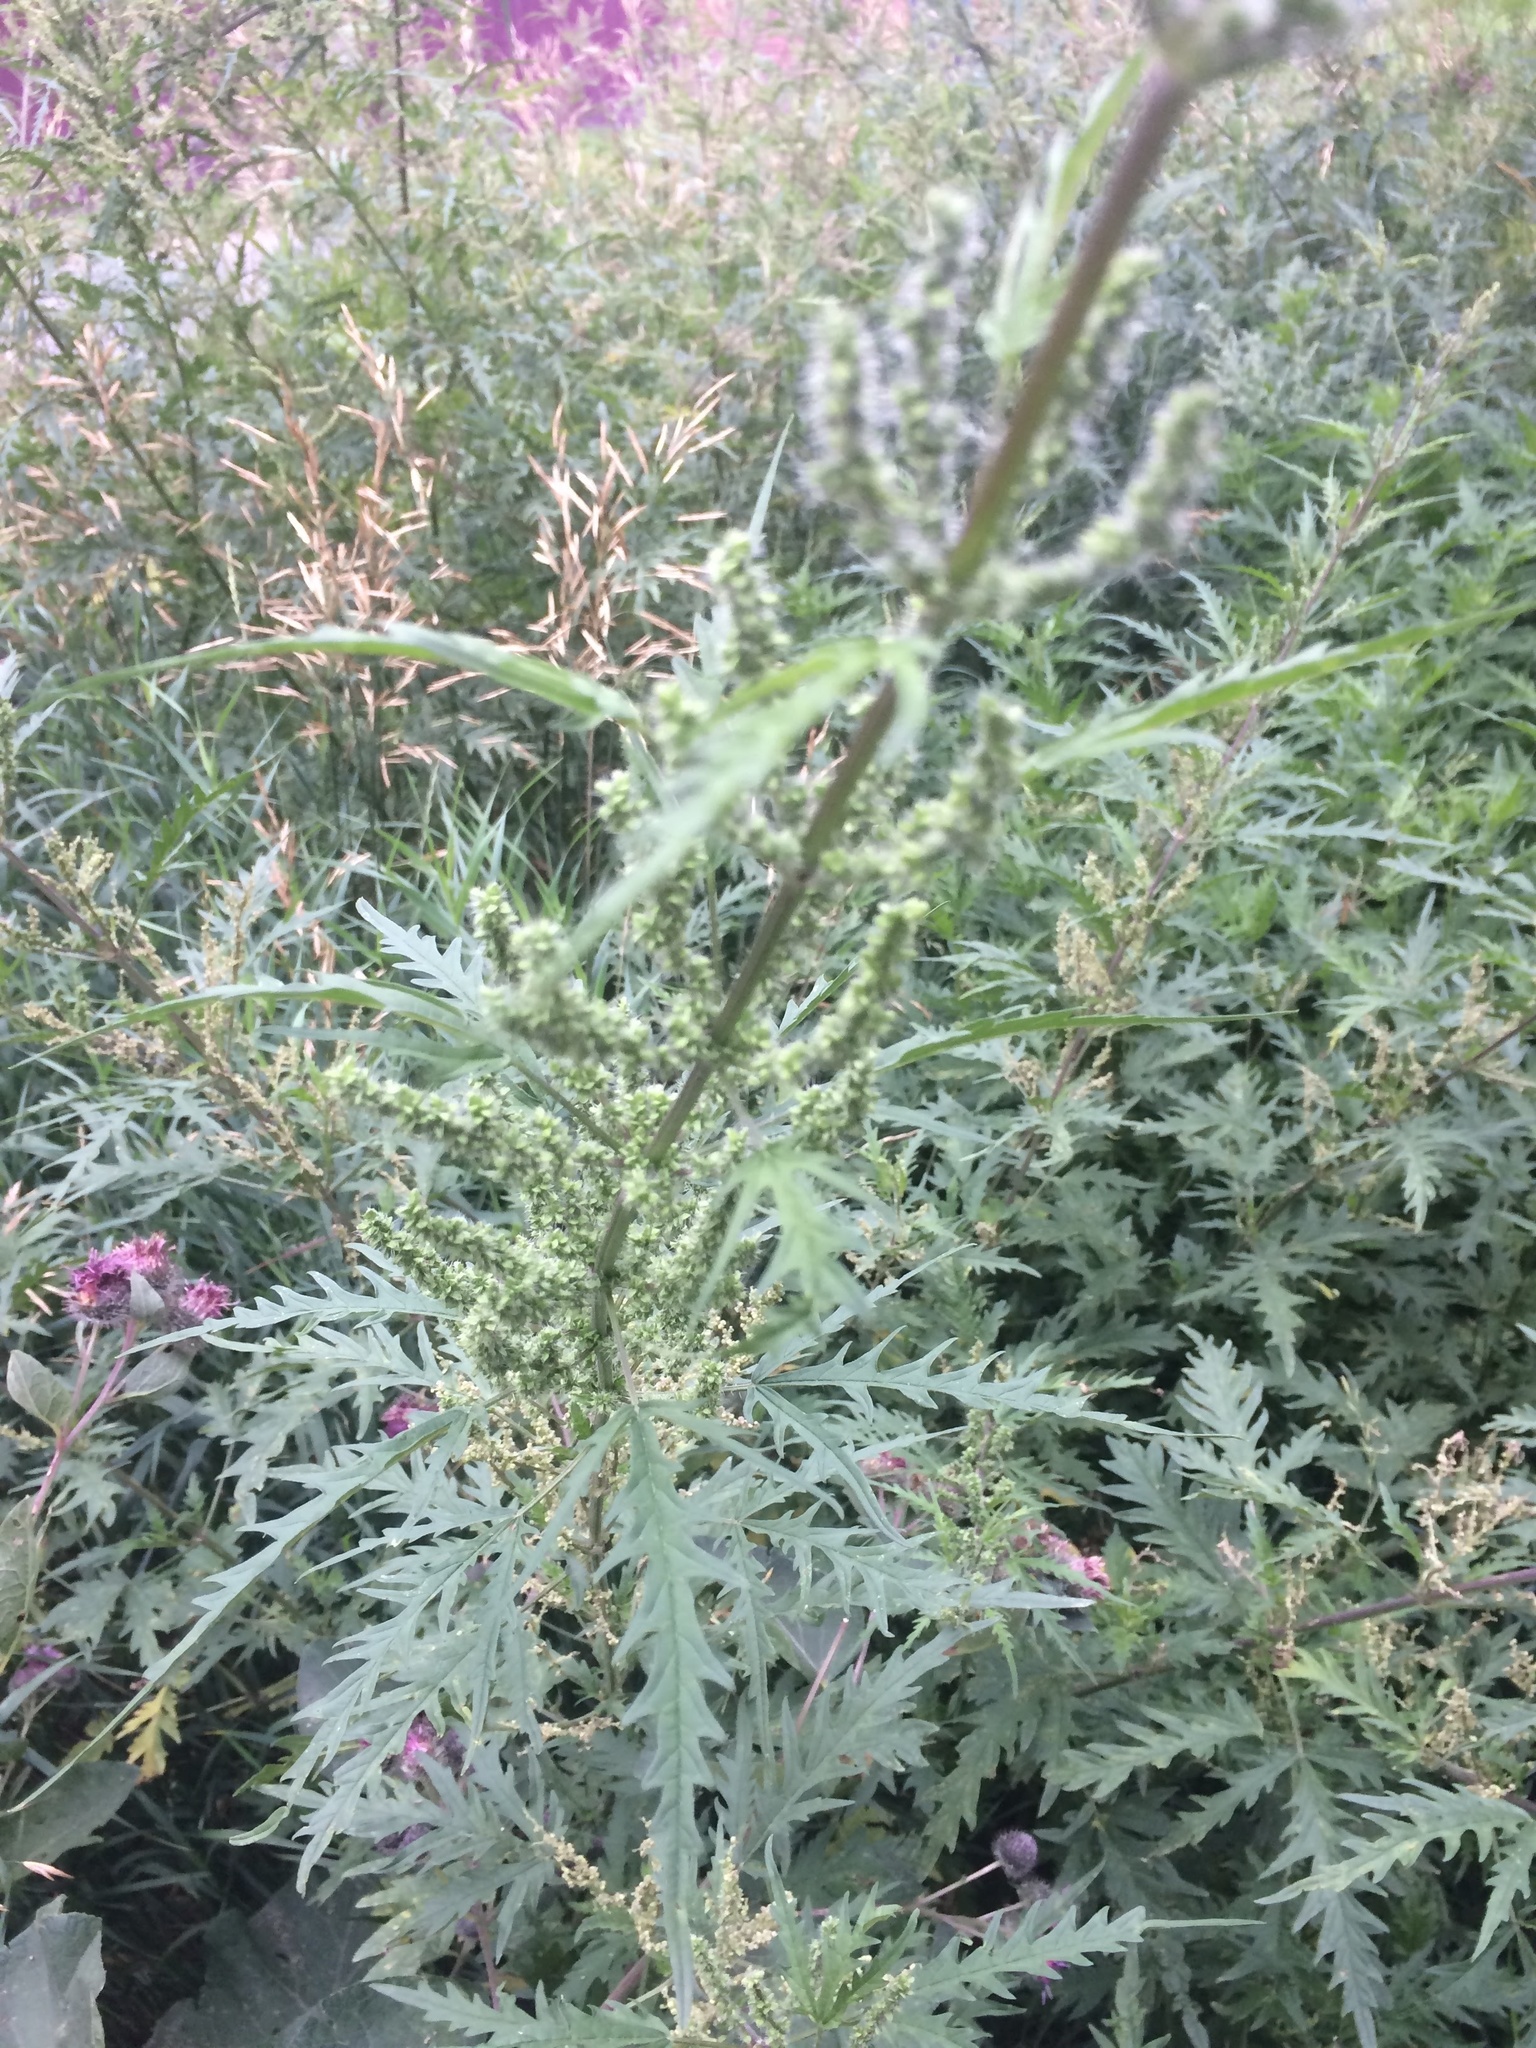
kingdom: Plantae
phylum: Tracheophyta
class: Magnoliopsida
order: Rosales
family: Urticaceae
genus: Urtica
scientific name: Urtica cannabina
